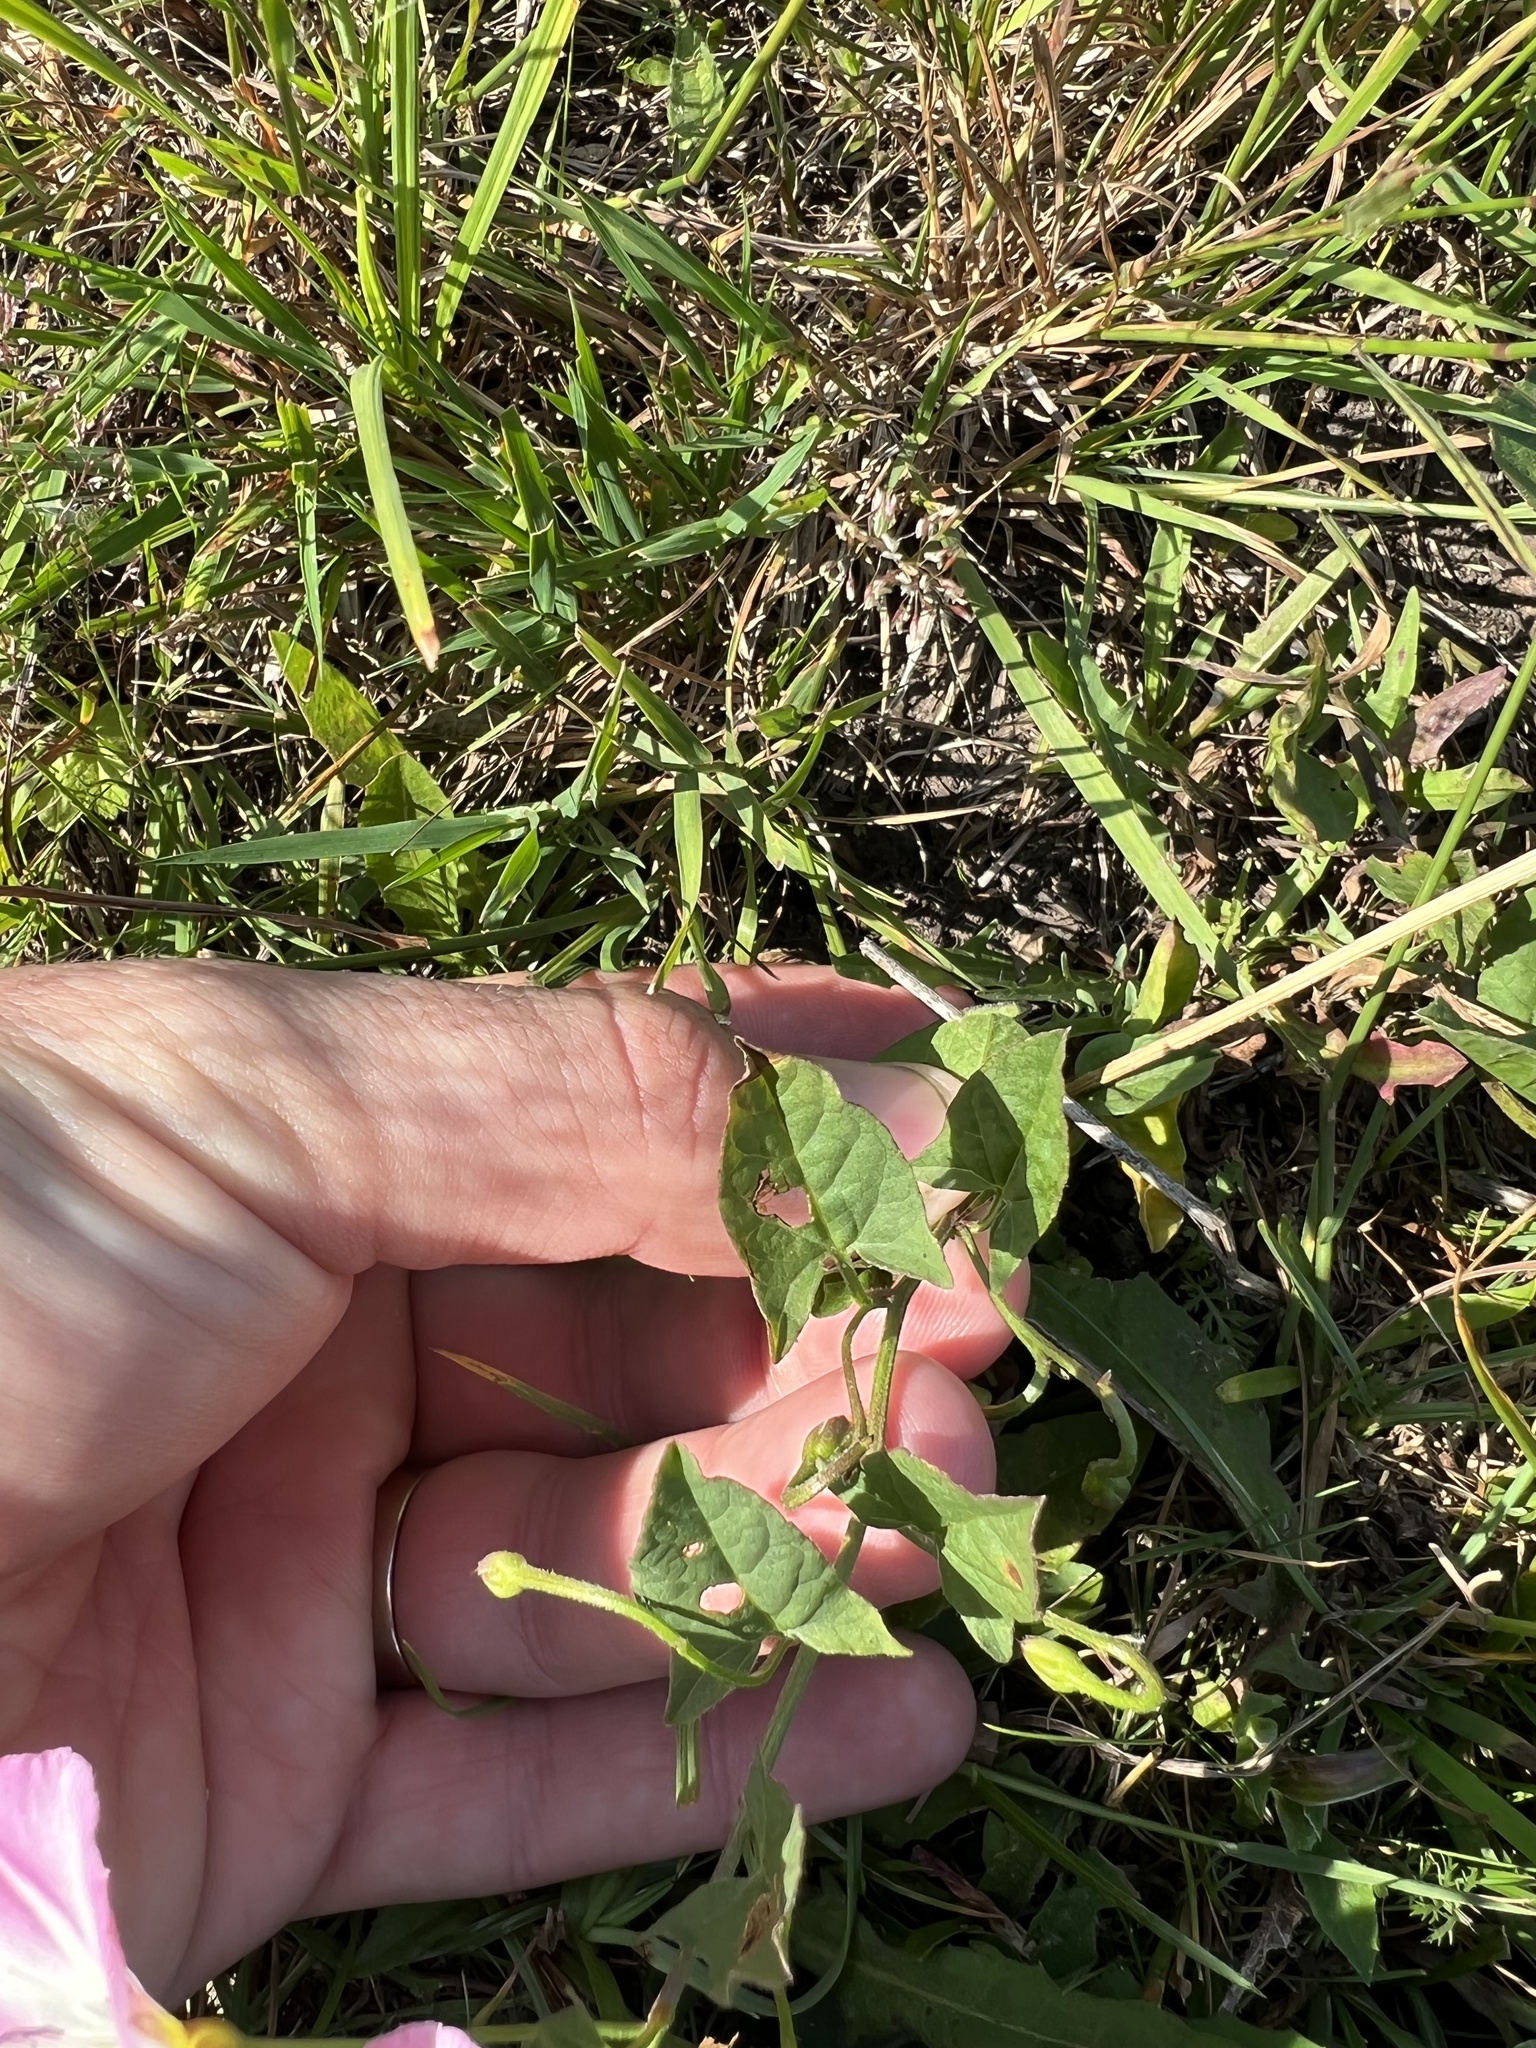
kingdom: Plantae
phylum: Tracheophyta
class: Magnoliopsida
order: Solanales
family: Convolvulaceae
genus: Convolvulus
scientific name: Convolvulus arvensis
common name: Field bindweed
